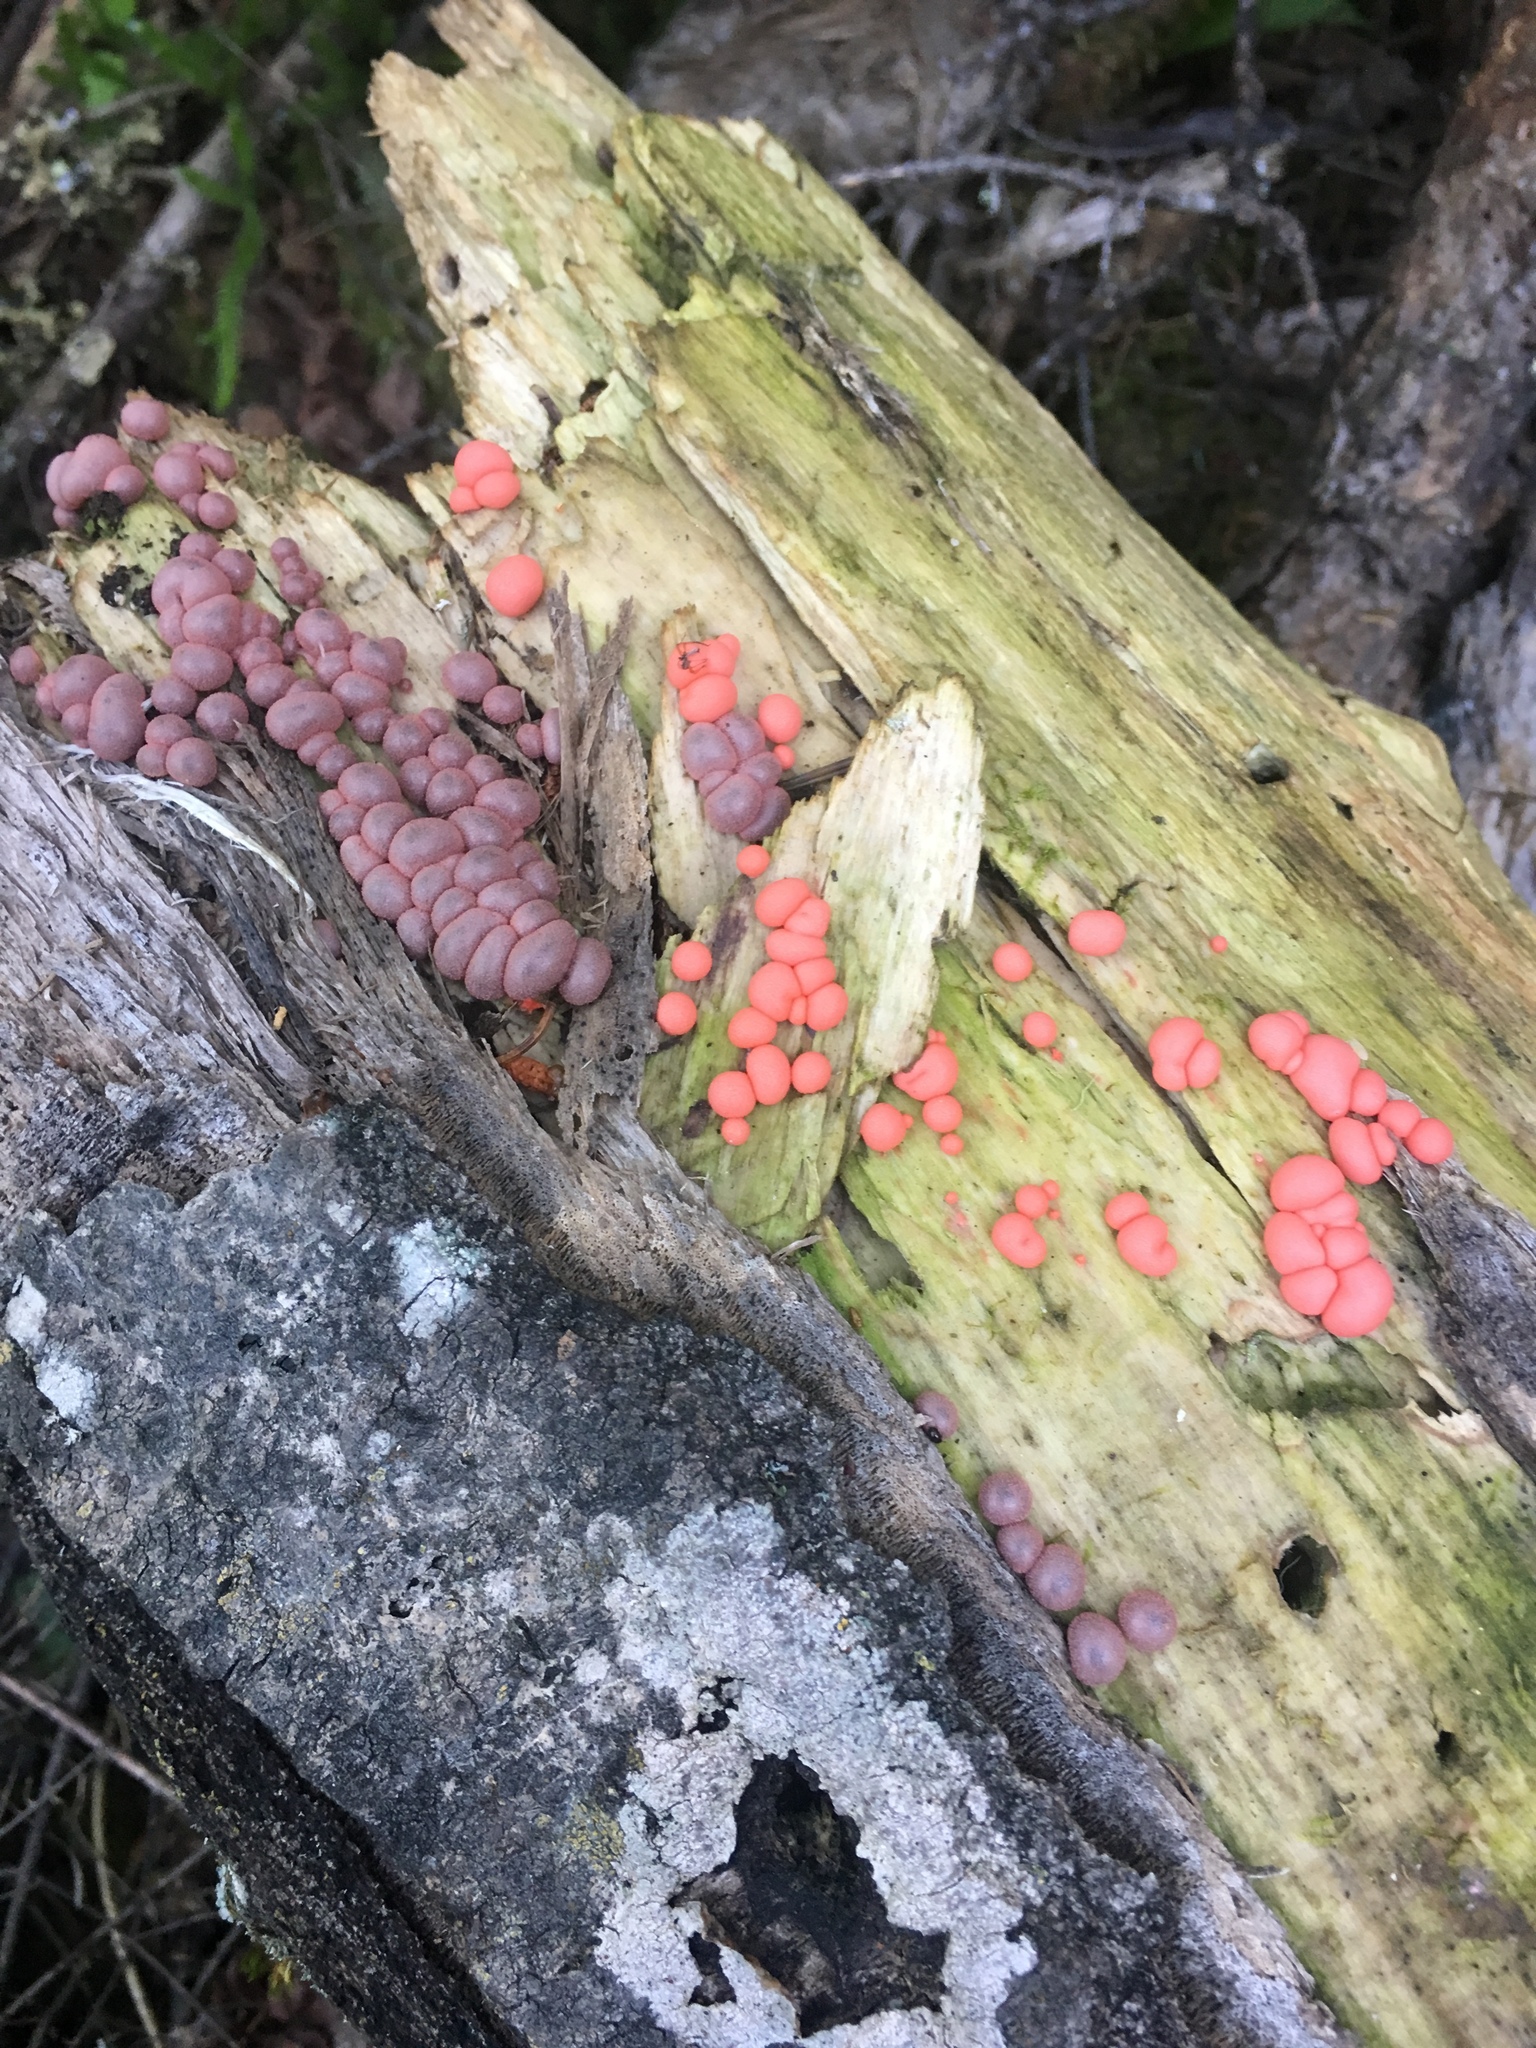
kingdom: Protozoa
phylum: Mycetozoa
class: Myxomycetes
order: Cribrariales
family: Tubiferaceae
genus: Lycogala
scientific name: Lycogala epidendrum
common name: Wolf's milk
